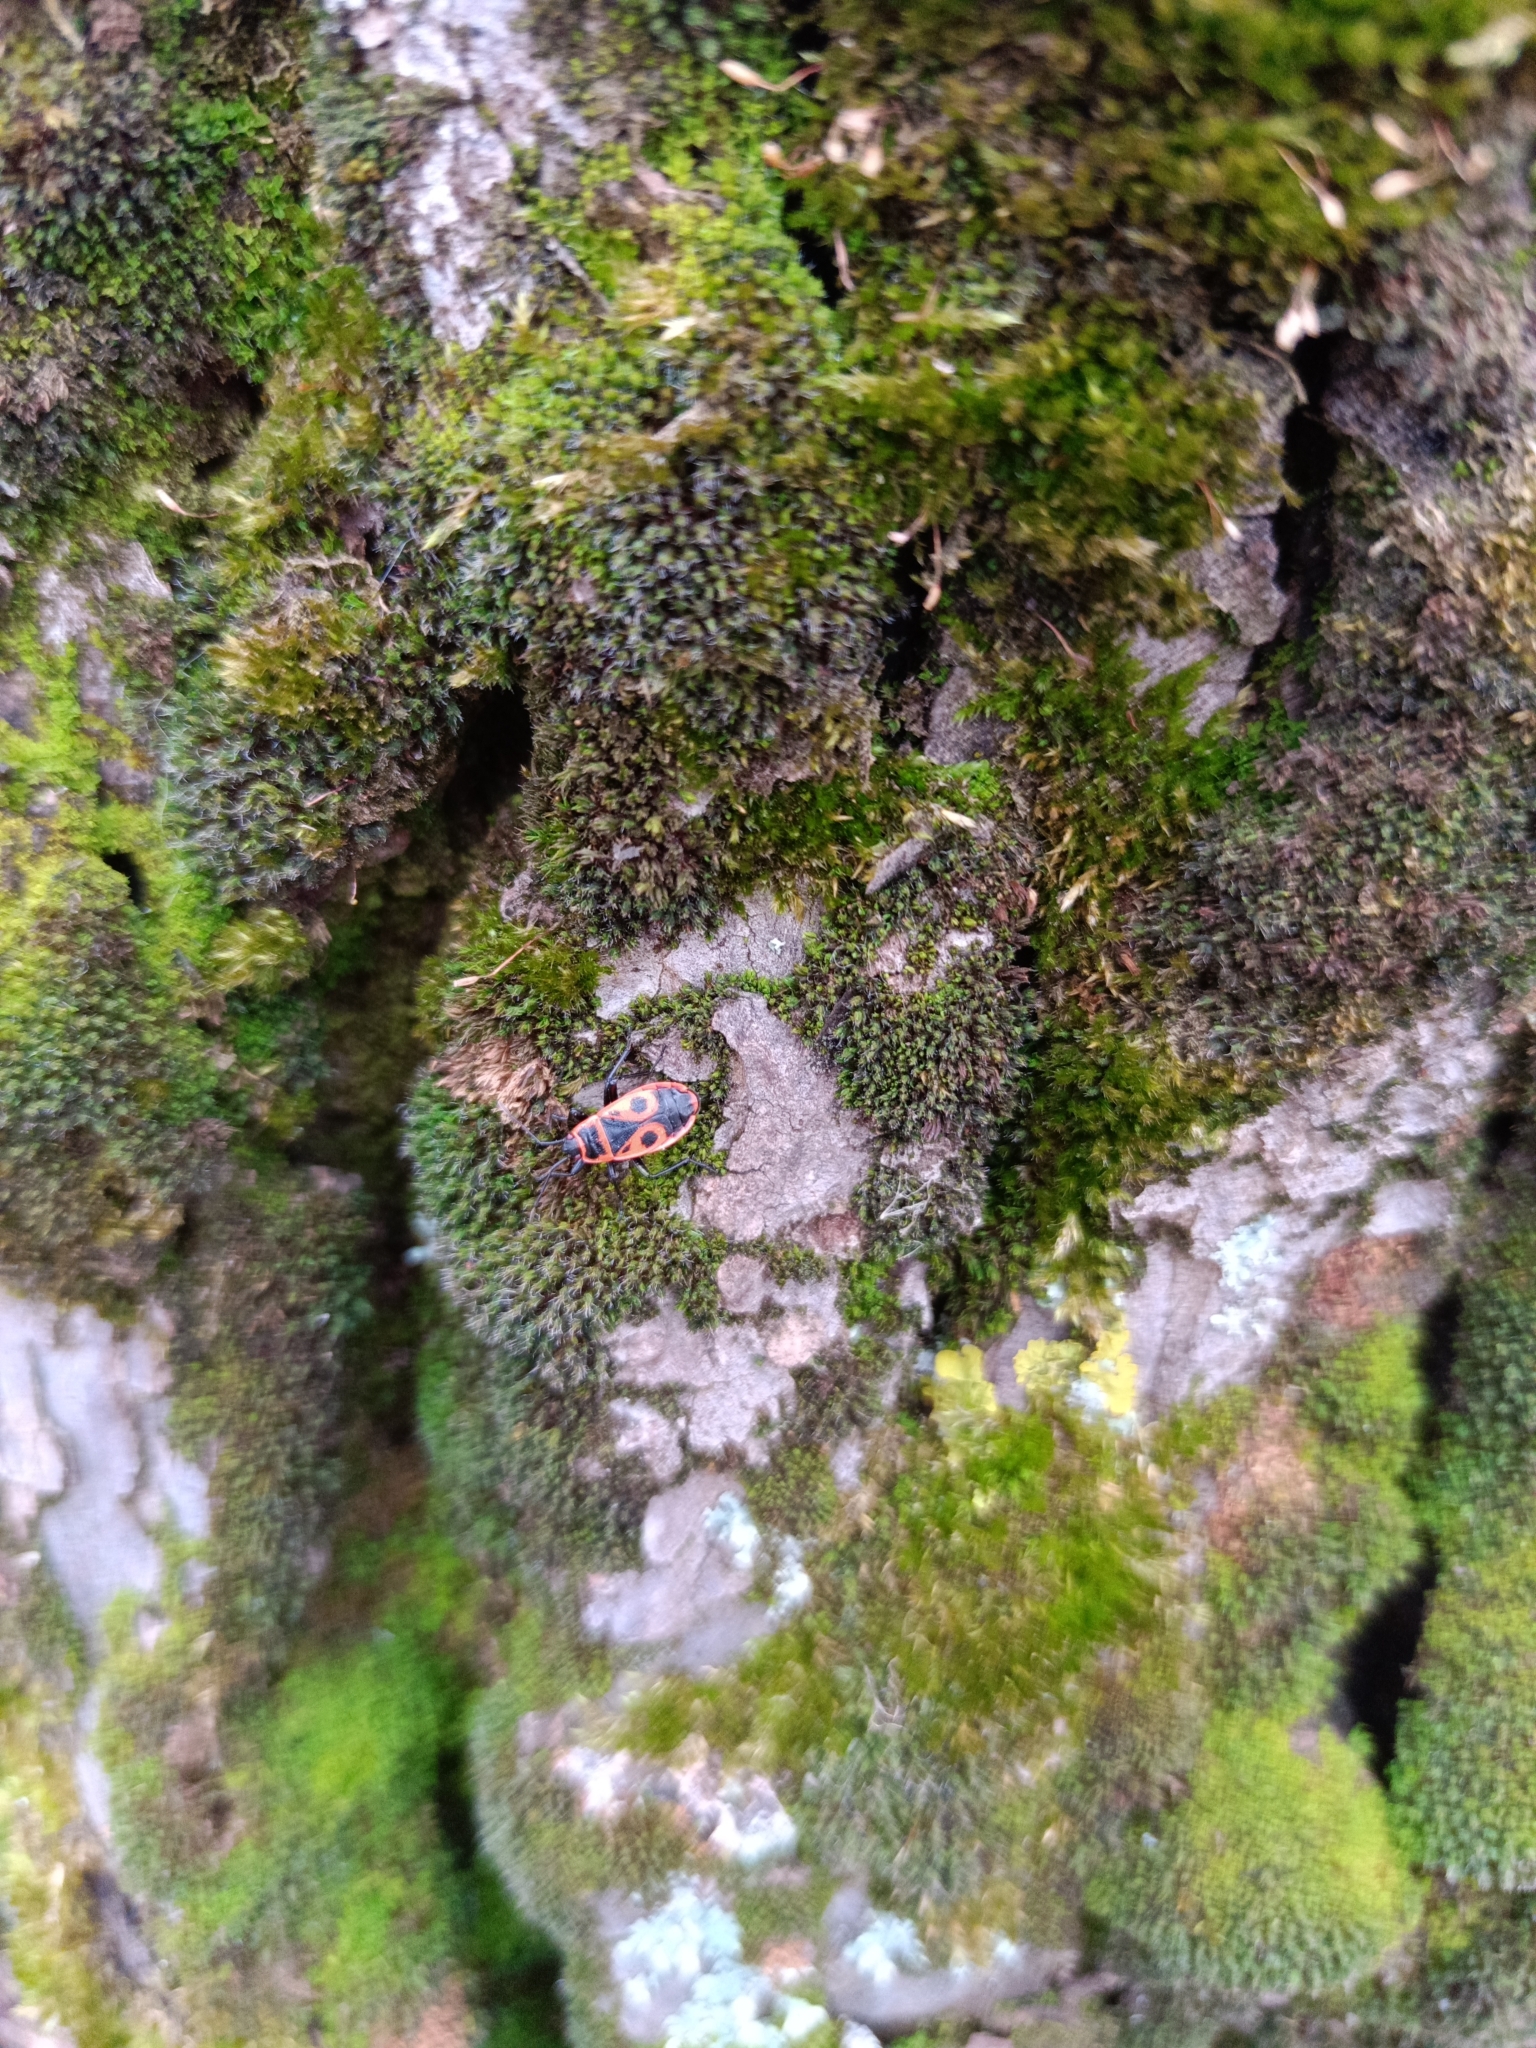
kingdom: Animalia
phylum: Arthropoda
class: Insecta
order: Hemiptera
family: Pyrrhocoridae
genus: Pyrrhocoris
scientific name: Pyrrhocoris apterus
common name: Firebug
